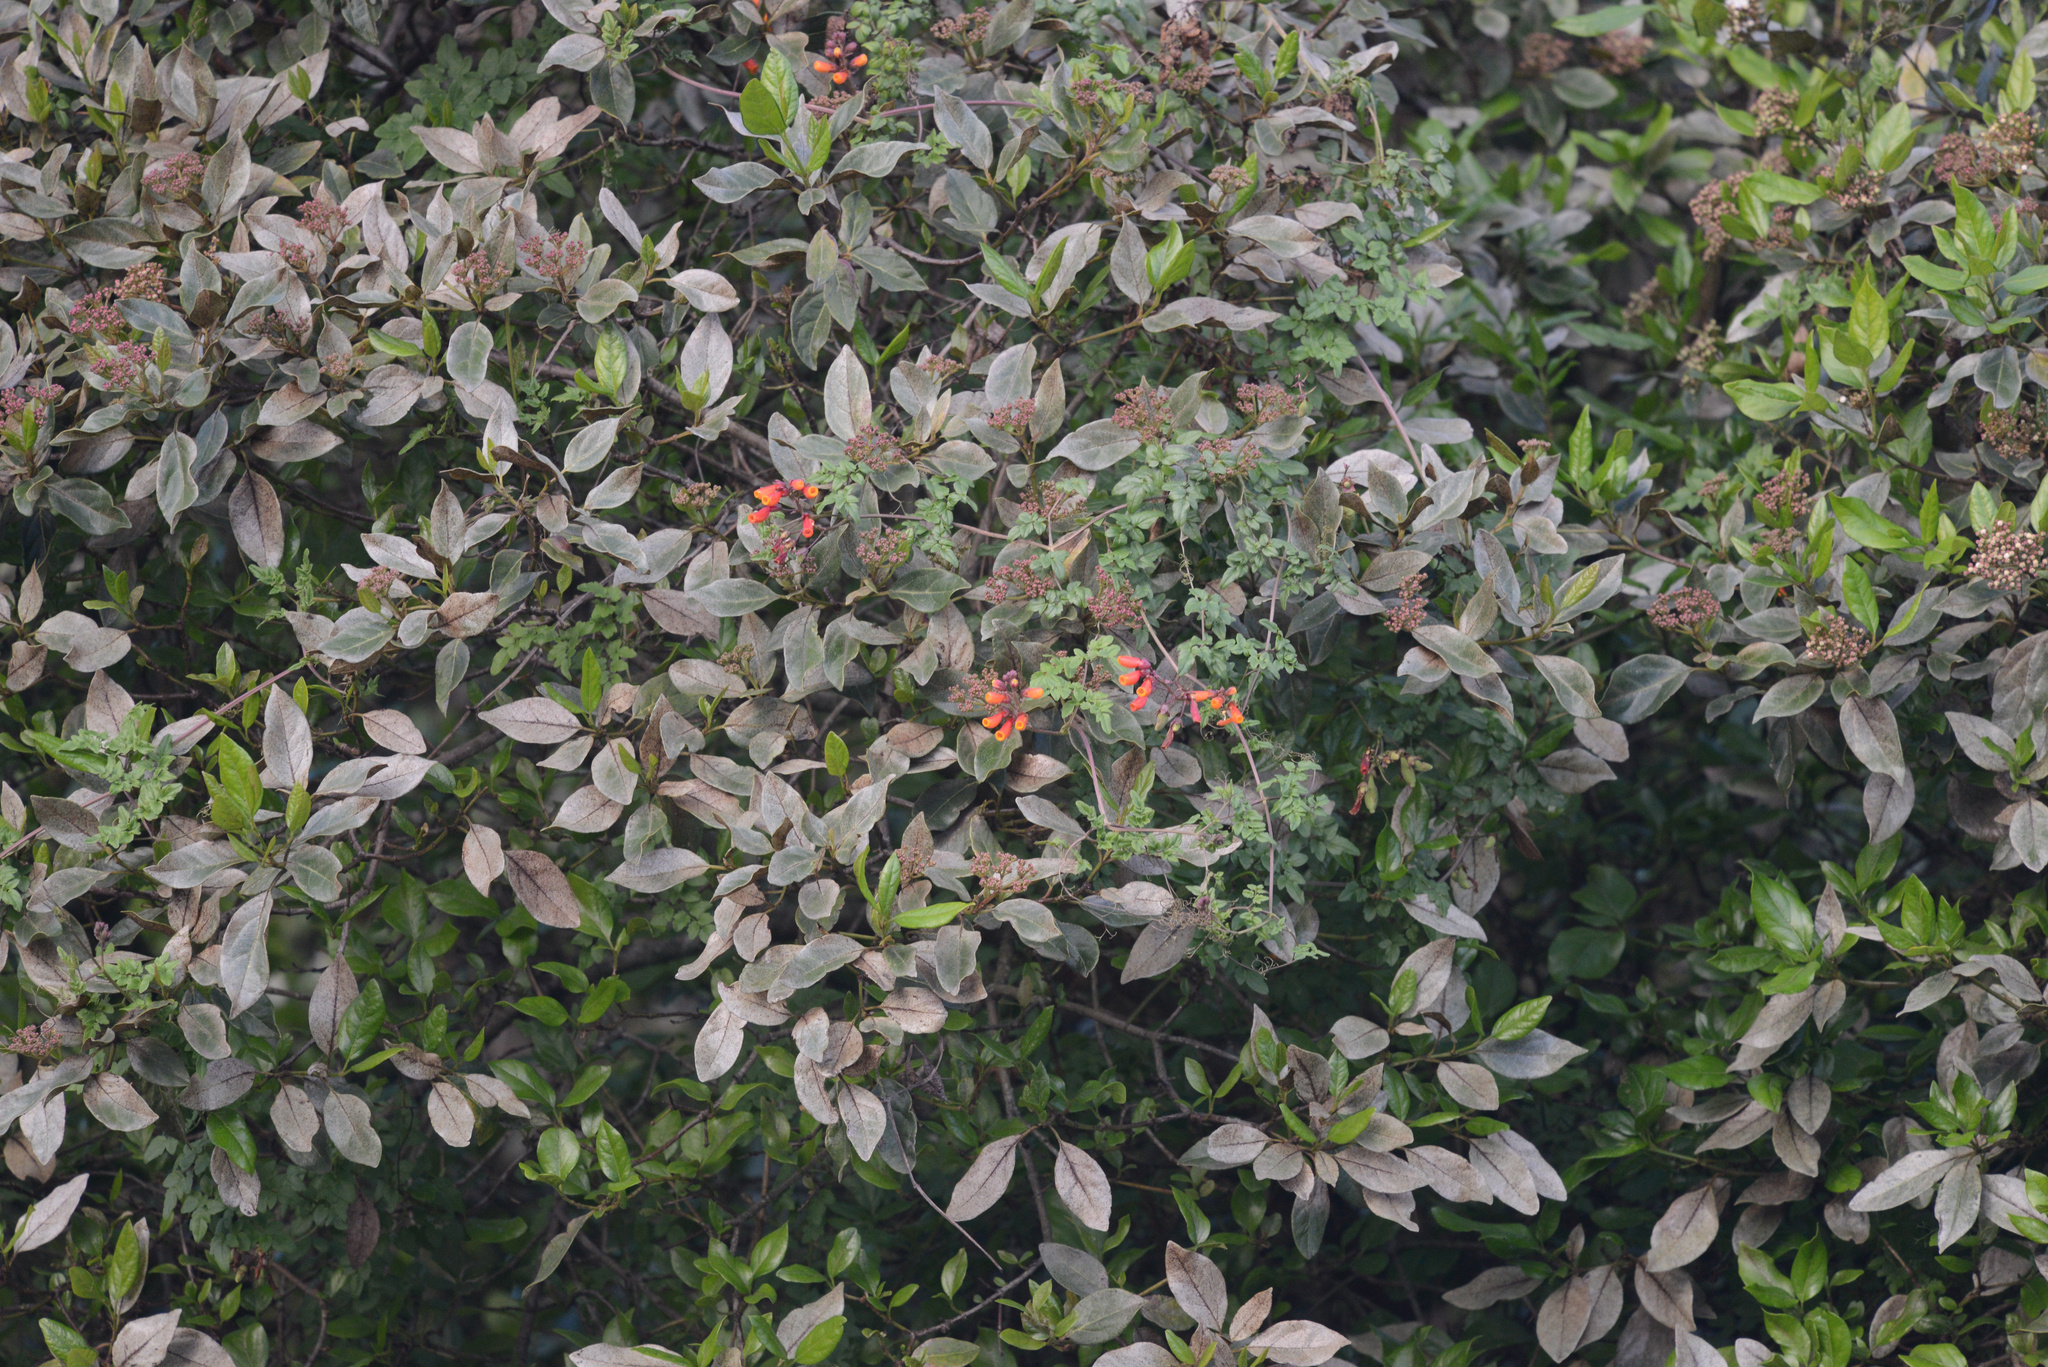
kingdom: Plantae
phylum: Tracheophyta
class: Magnoliopsida
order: Lamiales
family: Bignoniaceae
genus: Eccremocarpus
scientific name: Eccremocarpus scaber
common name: Chilean glory-flower
